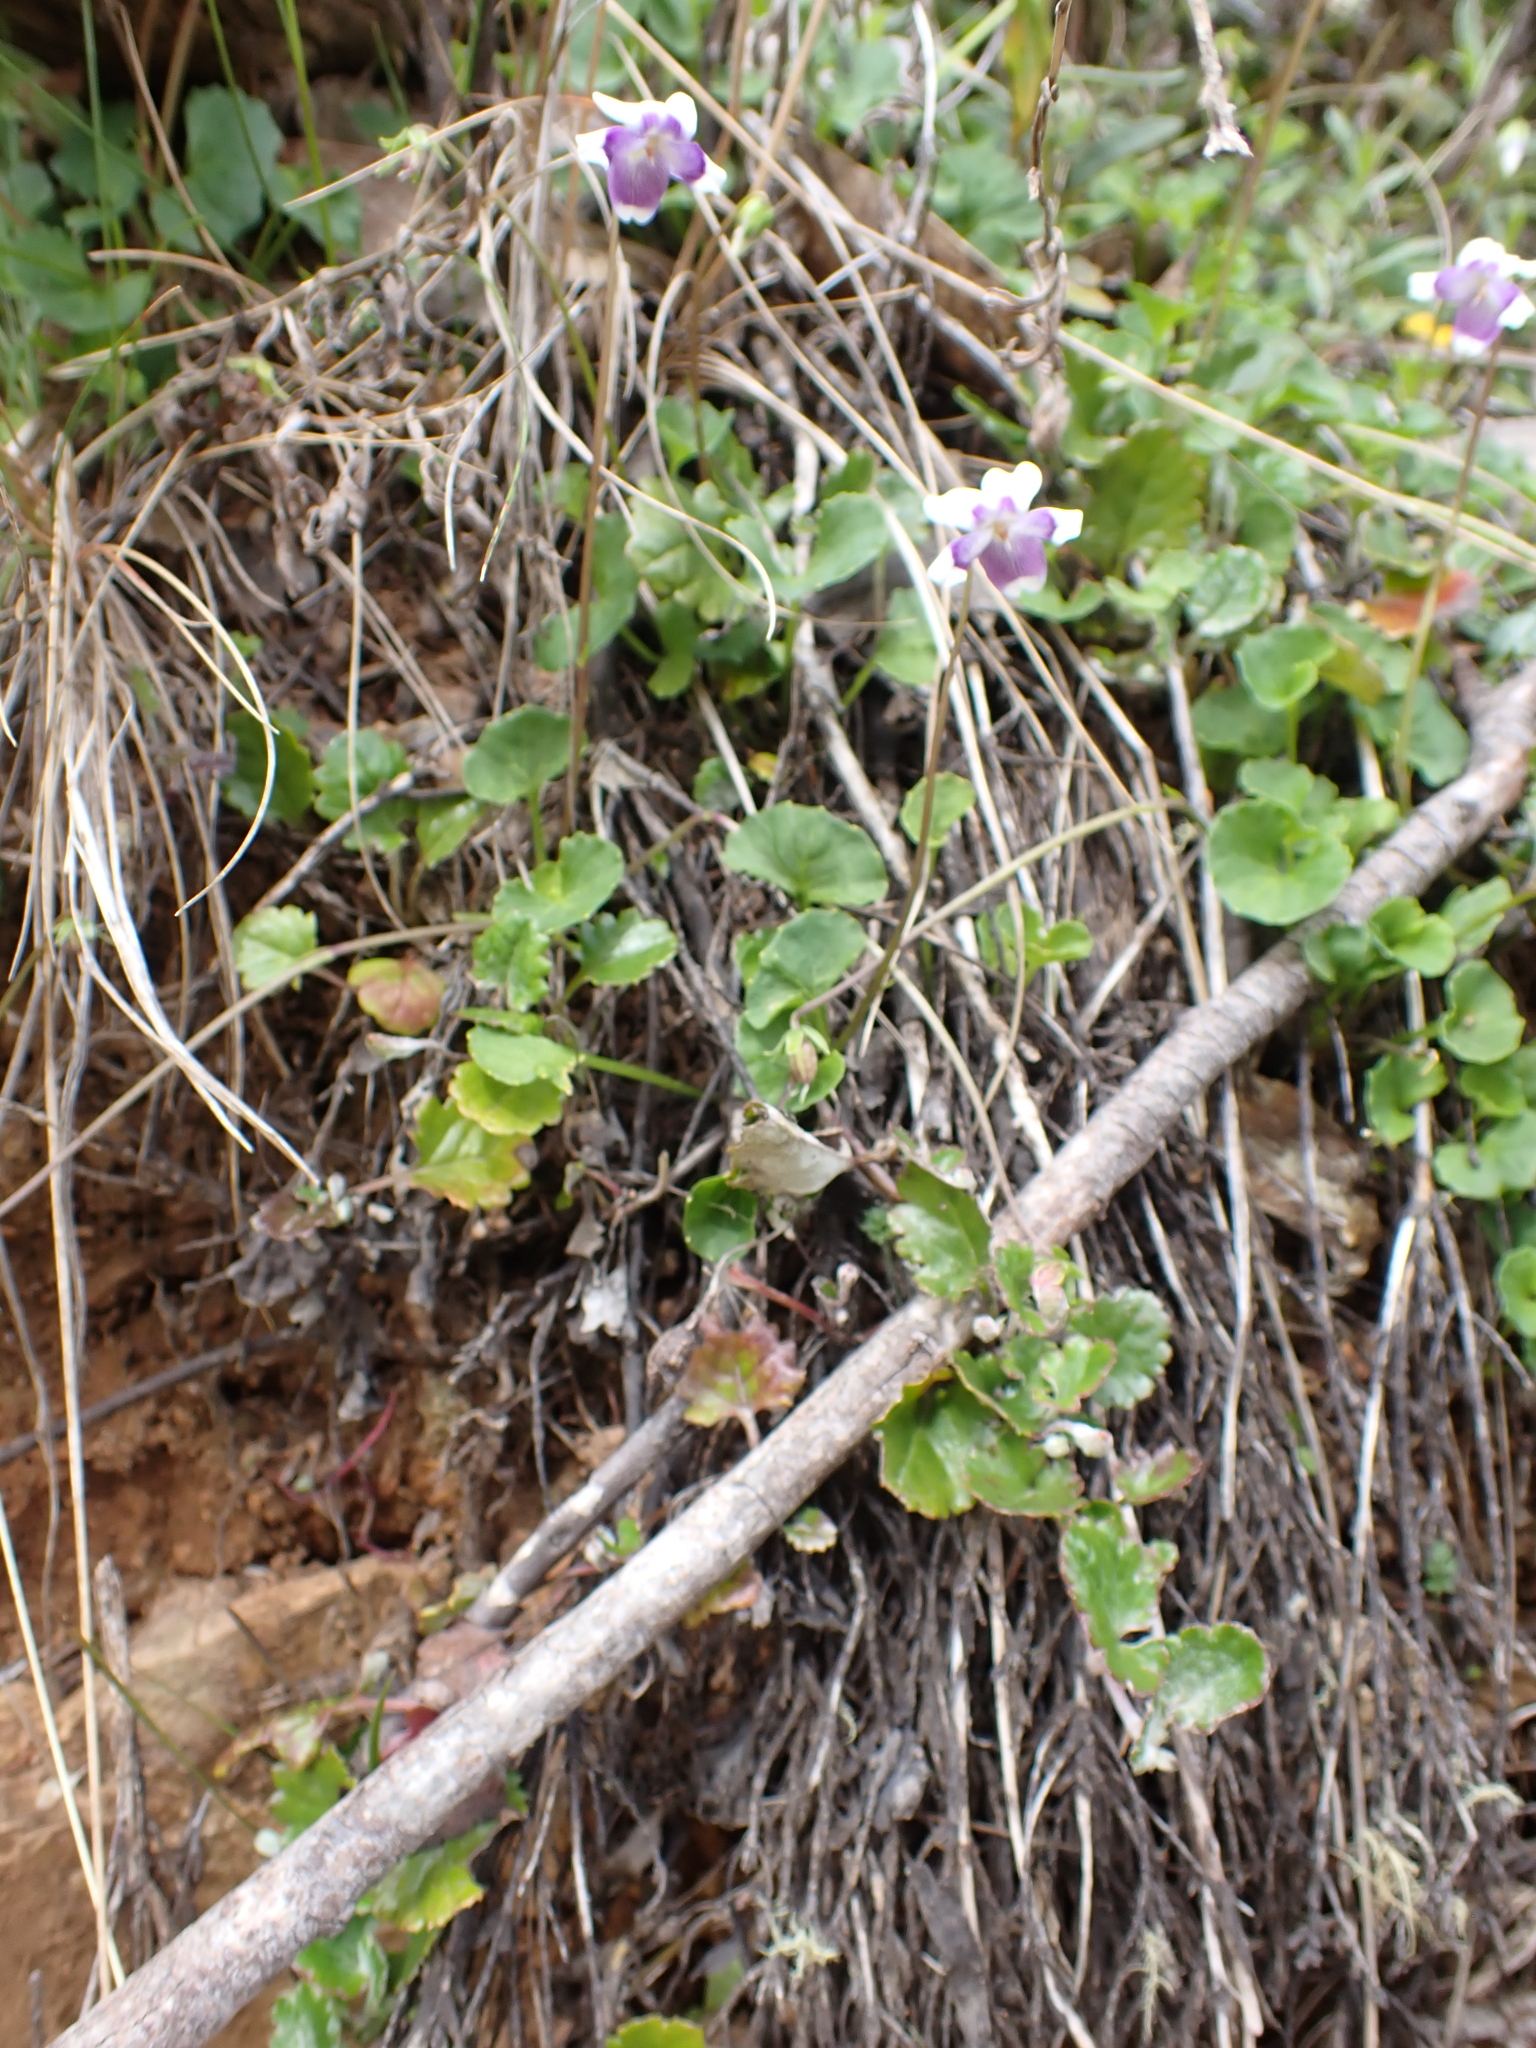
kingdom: Plantae
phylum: Tracheophyta
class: Magnoliopsida
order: Malpighiales
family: Violaceae
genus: Viola
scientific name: Viola eminens
